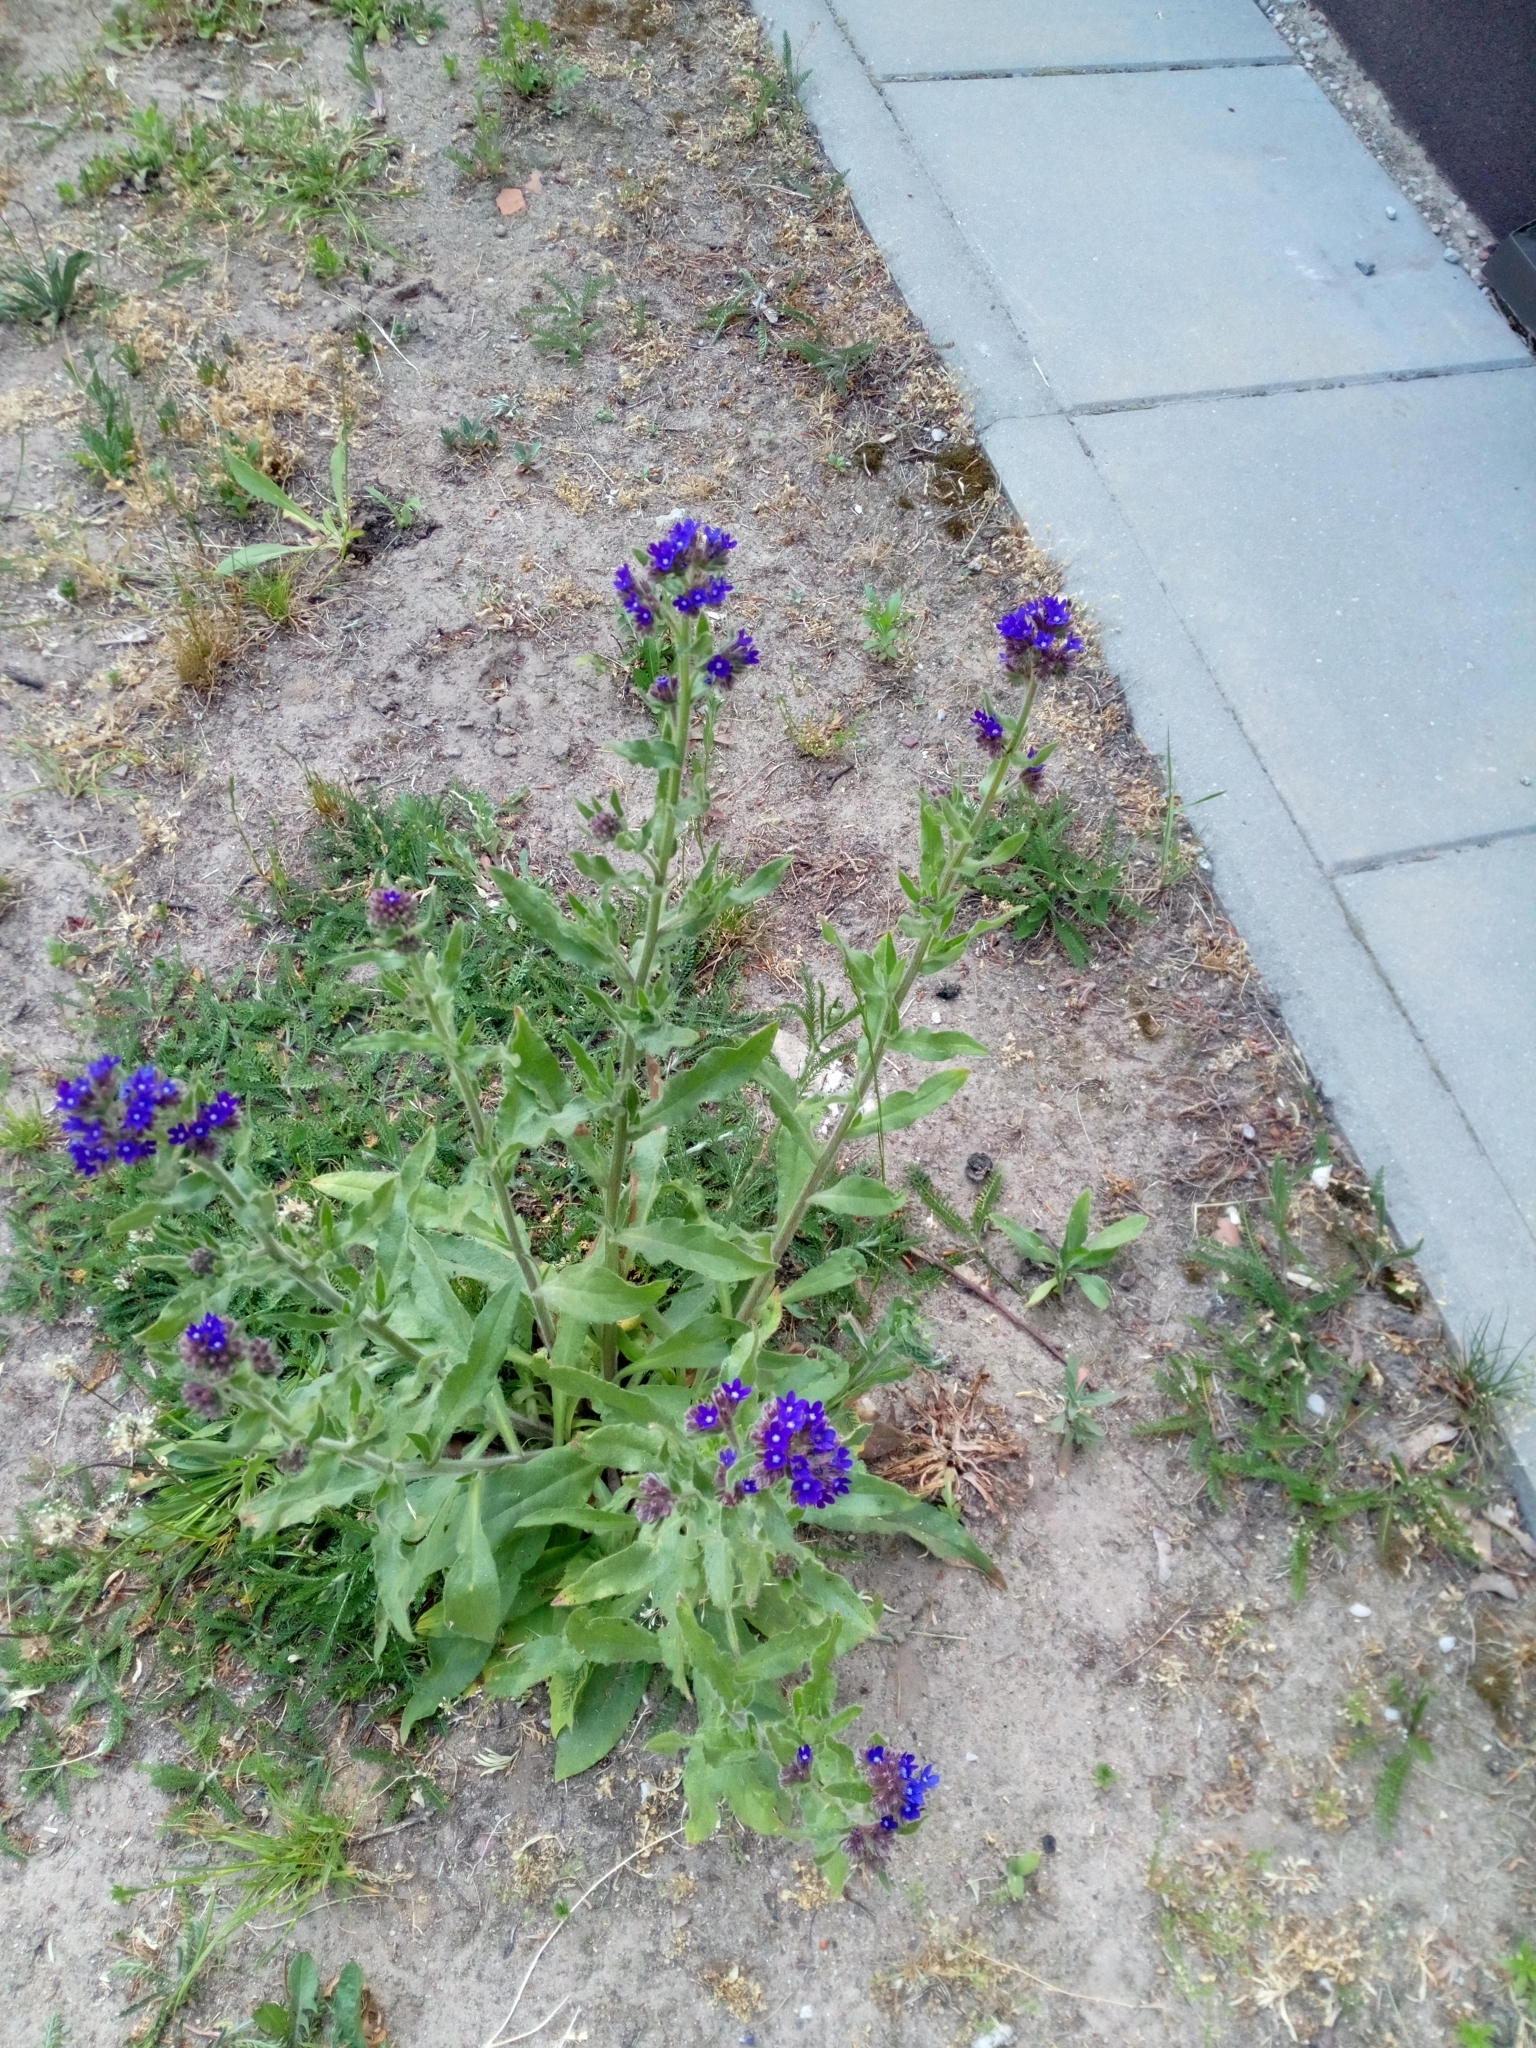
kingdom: Plantae
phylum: Tracheophyta
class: Magnoliopsida
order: Boraginales
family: Boraginaceae
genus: Anchusa
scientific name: Anchusa officinalis
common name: Alkanet
